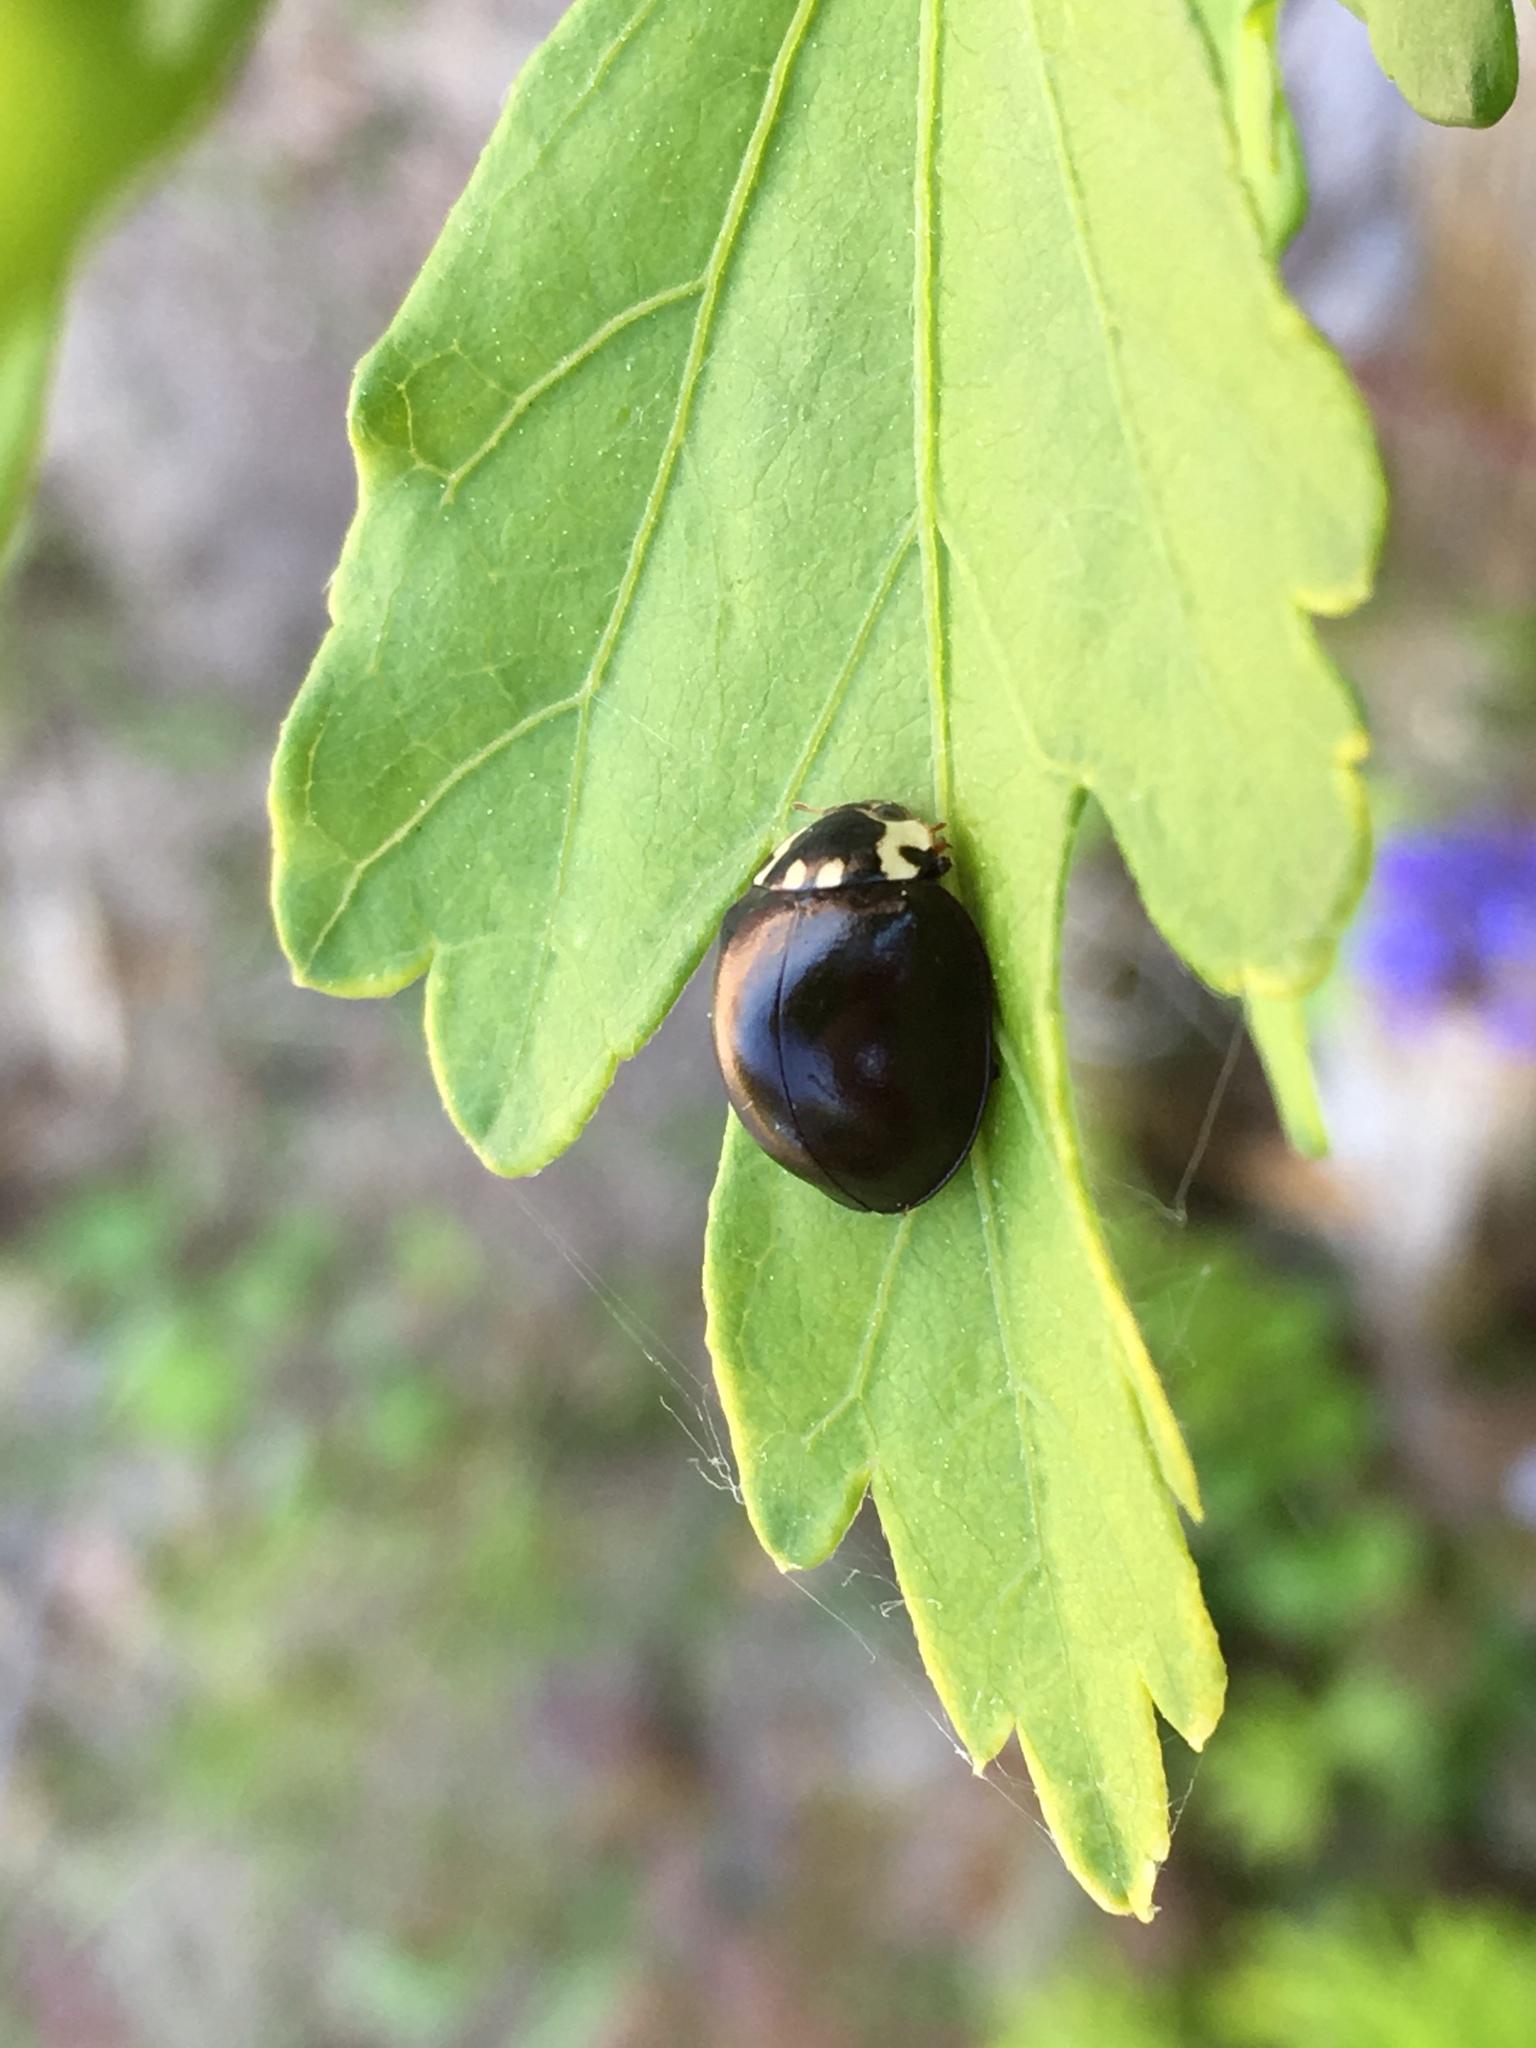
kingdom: Animalia
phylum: Arthropoda
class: Insecta
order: Coleoptera
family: Coccinellidae
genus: Anatis
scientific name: Anatis labiculata
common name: Fifteen-spotted lady beetle
